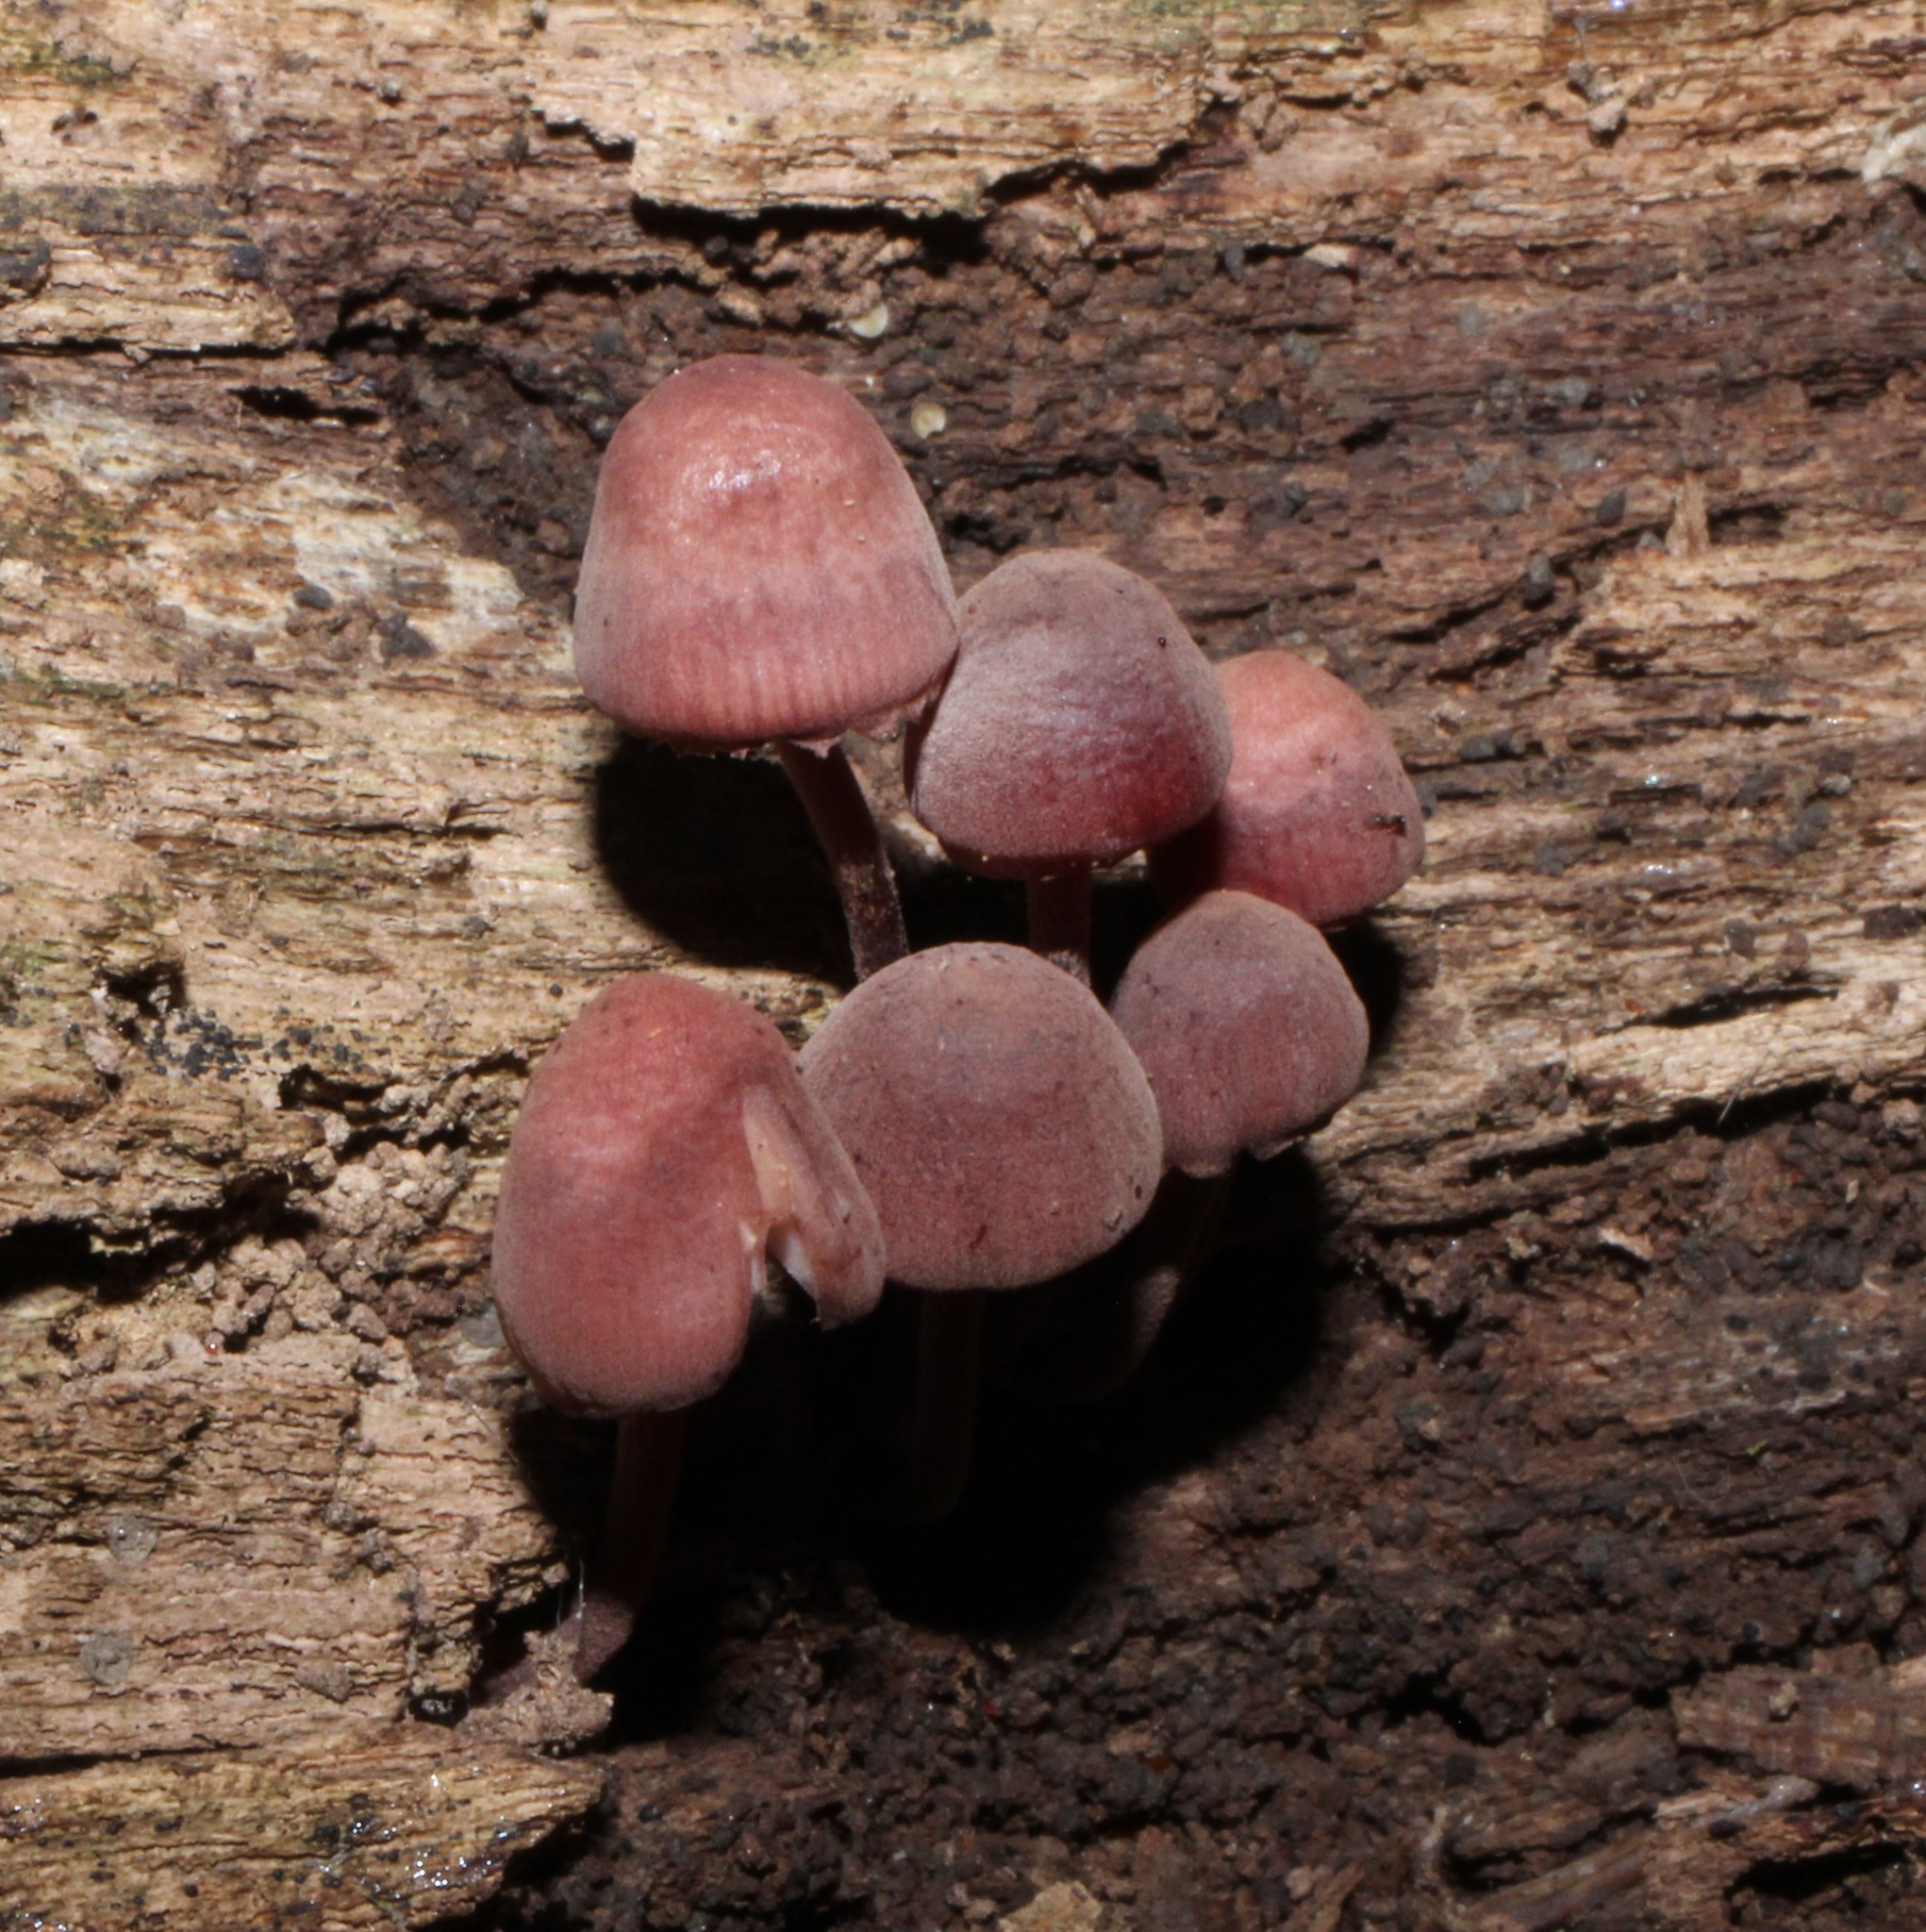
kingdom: Fungi
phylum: Basidiomycota
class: Agaricomycetes
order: Agaricales
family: Mycenaceae
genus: Mycena
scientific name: Mycena haematopus
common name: Burgundydrop bonnet
